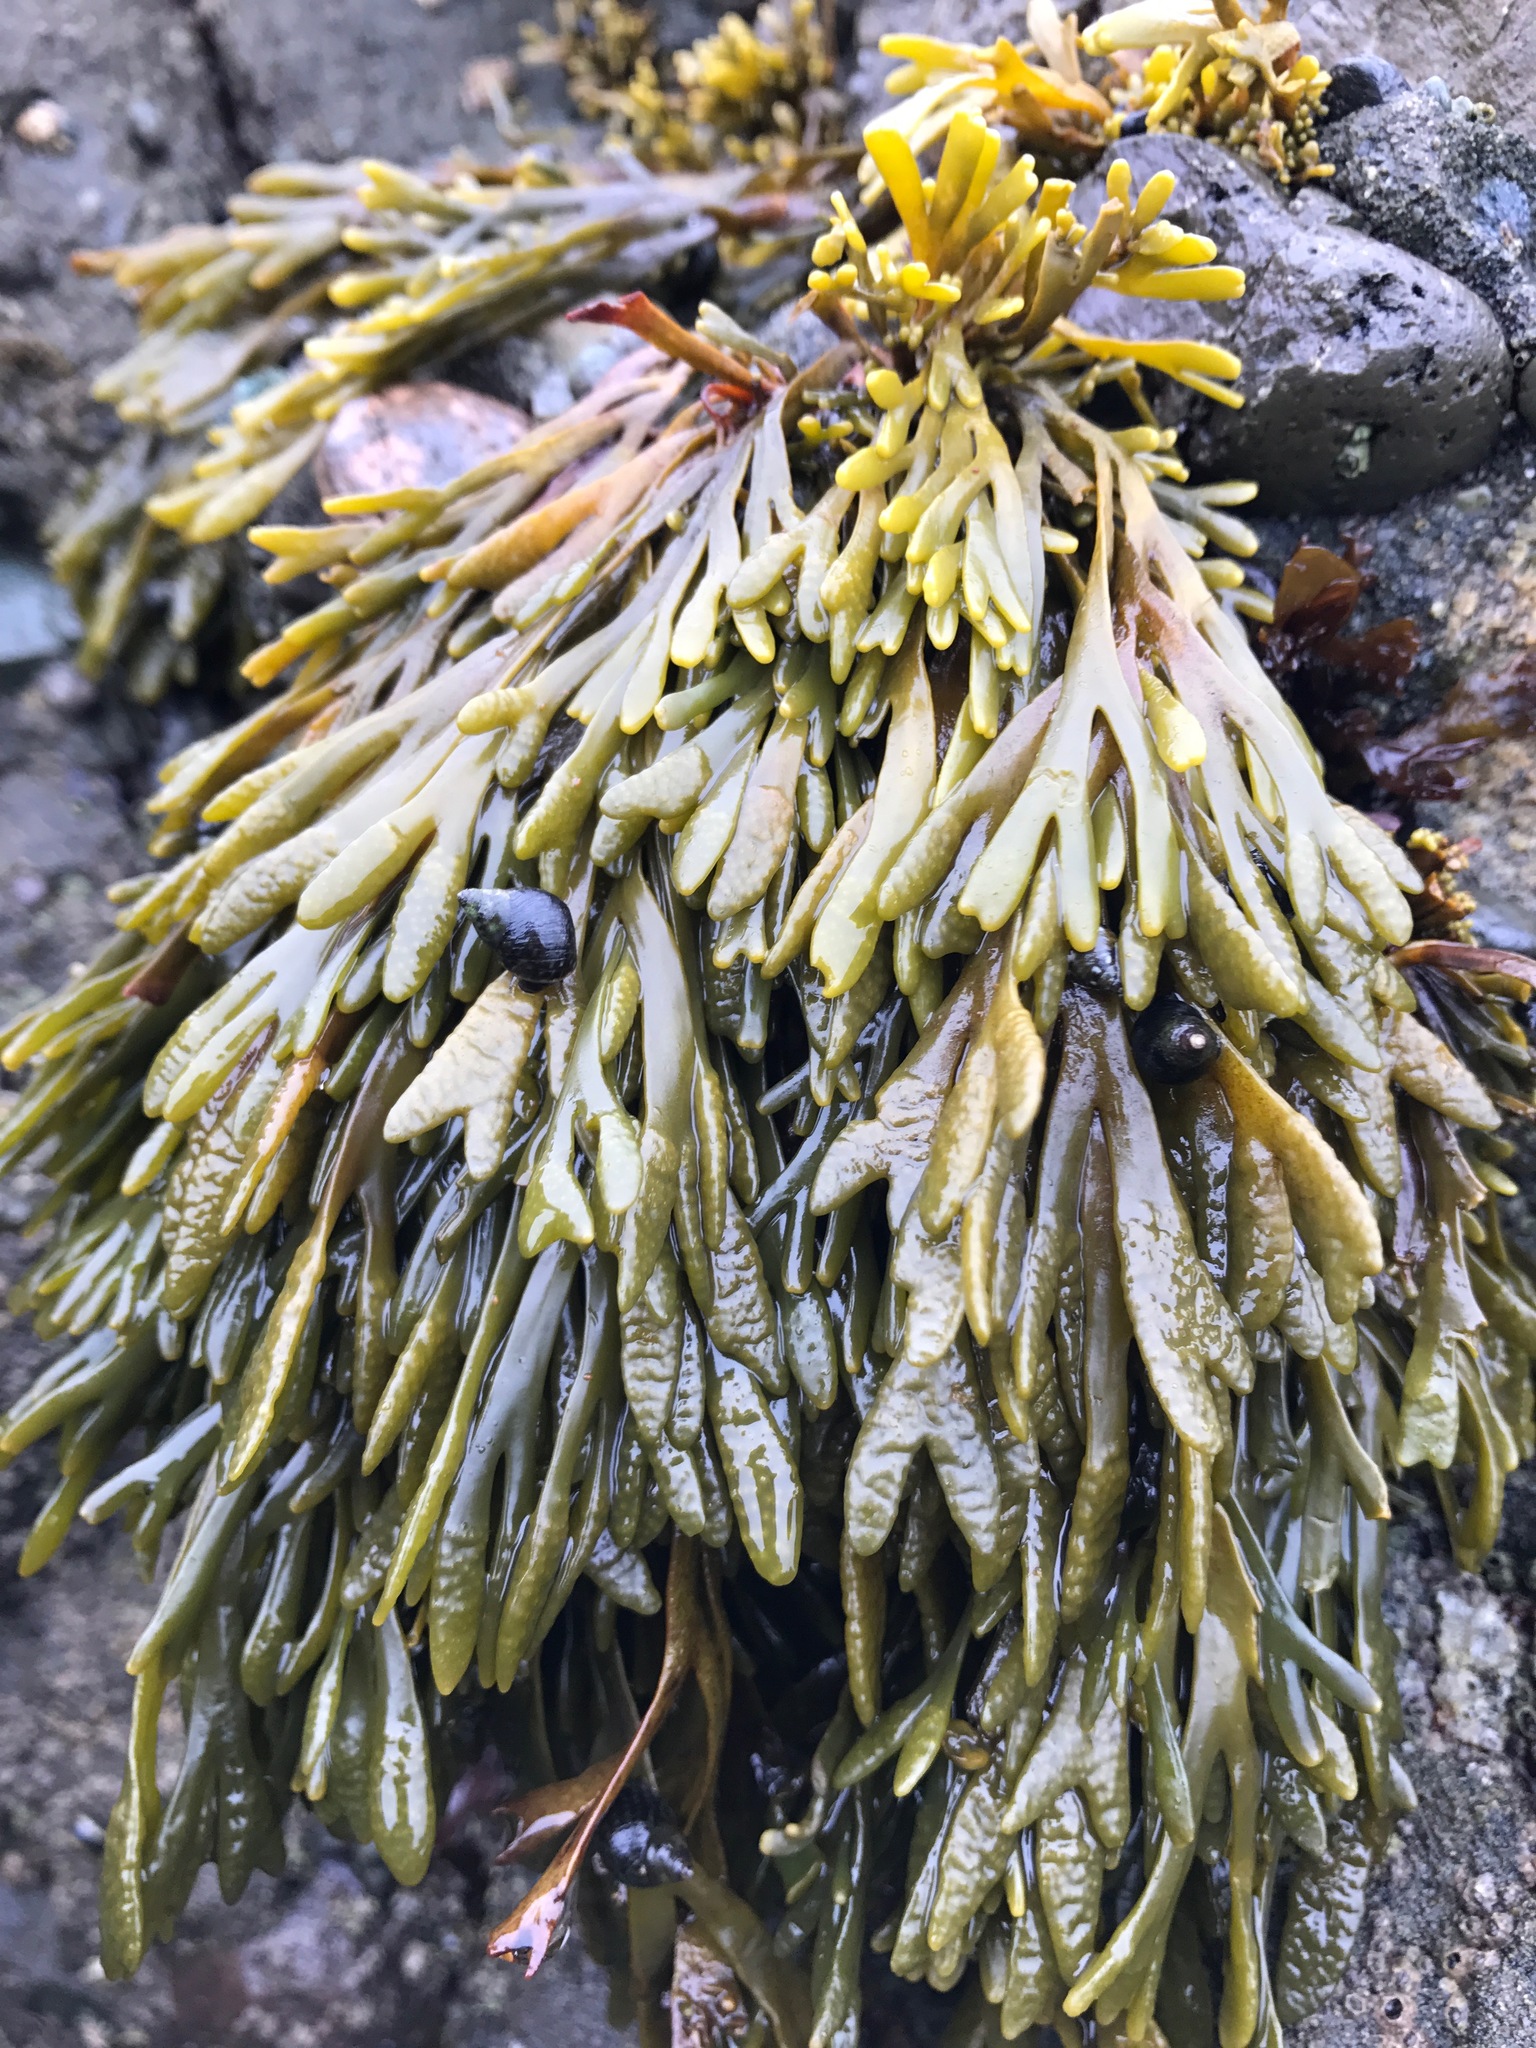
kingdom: Chromista
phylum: Ochrophyta
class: Phaeophyceae
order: Fucales
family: Fucaceae
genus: Pelvetiopsis
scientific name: Pelvetiopsis limitata
